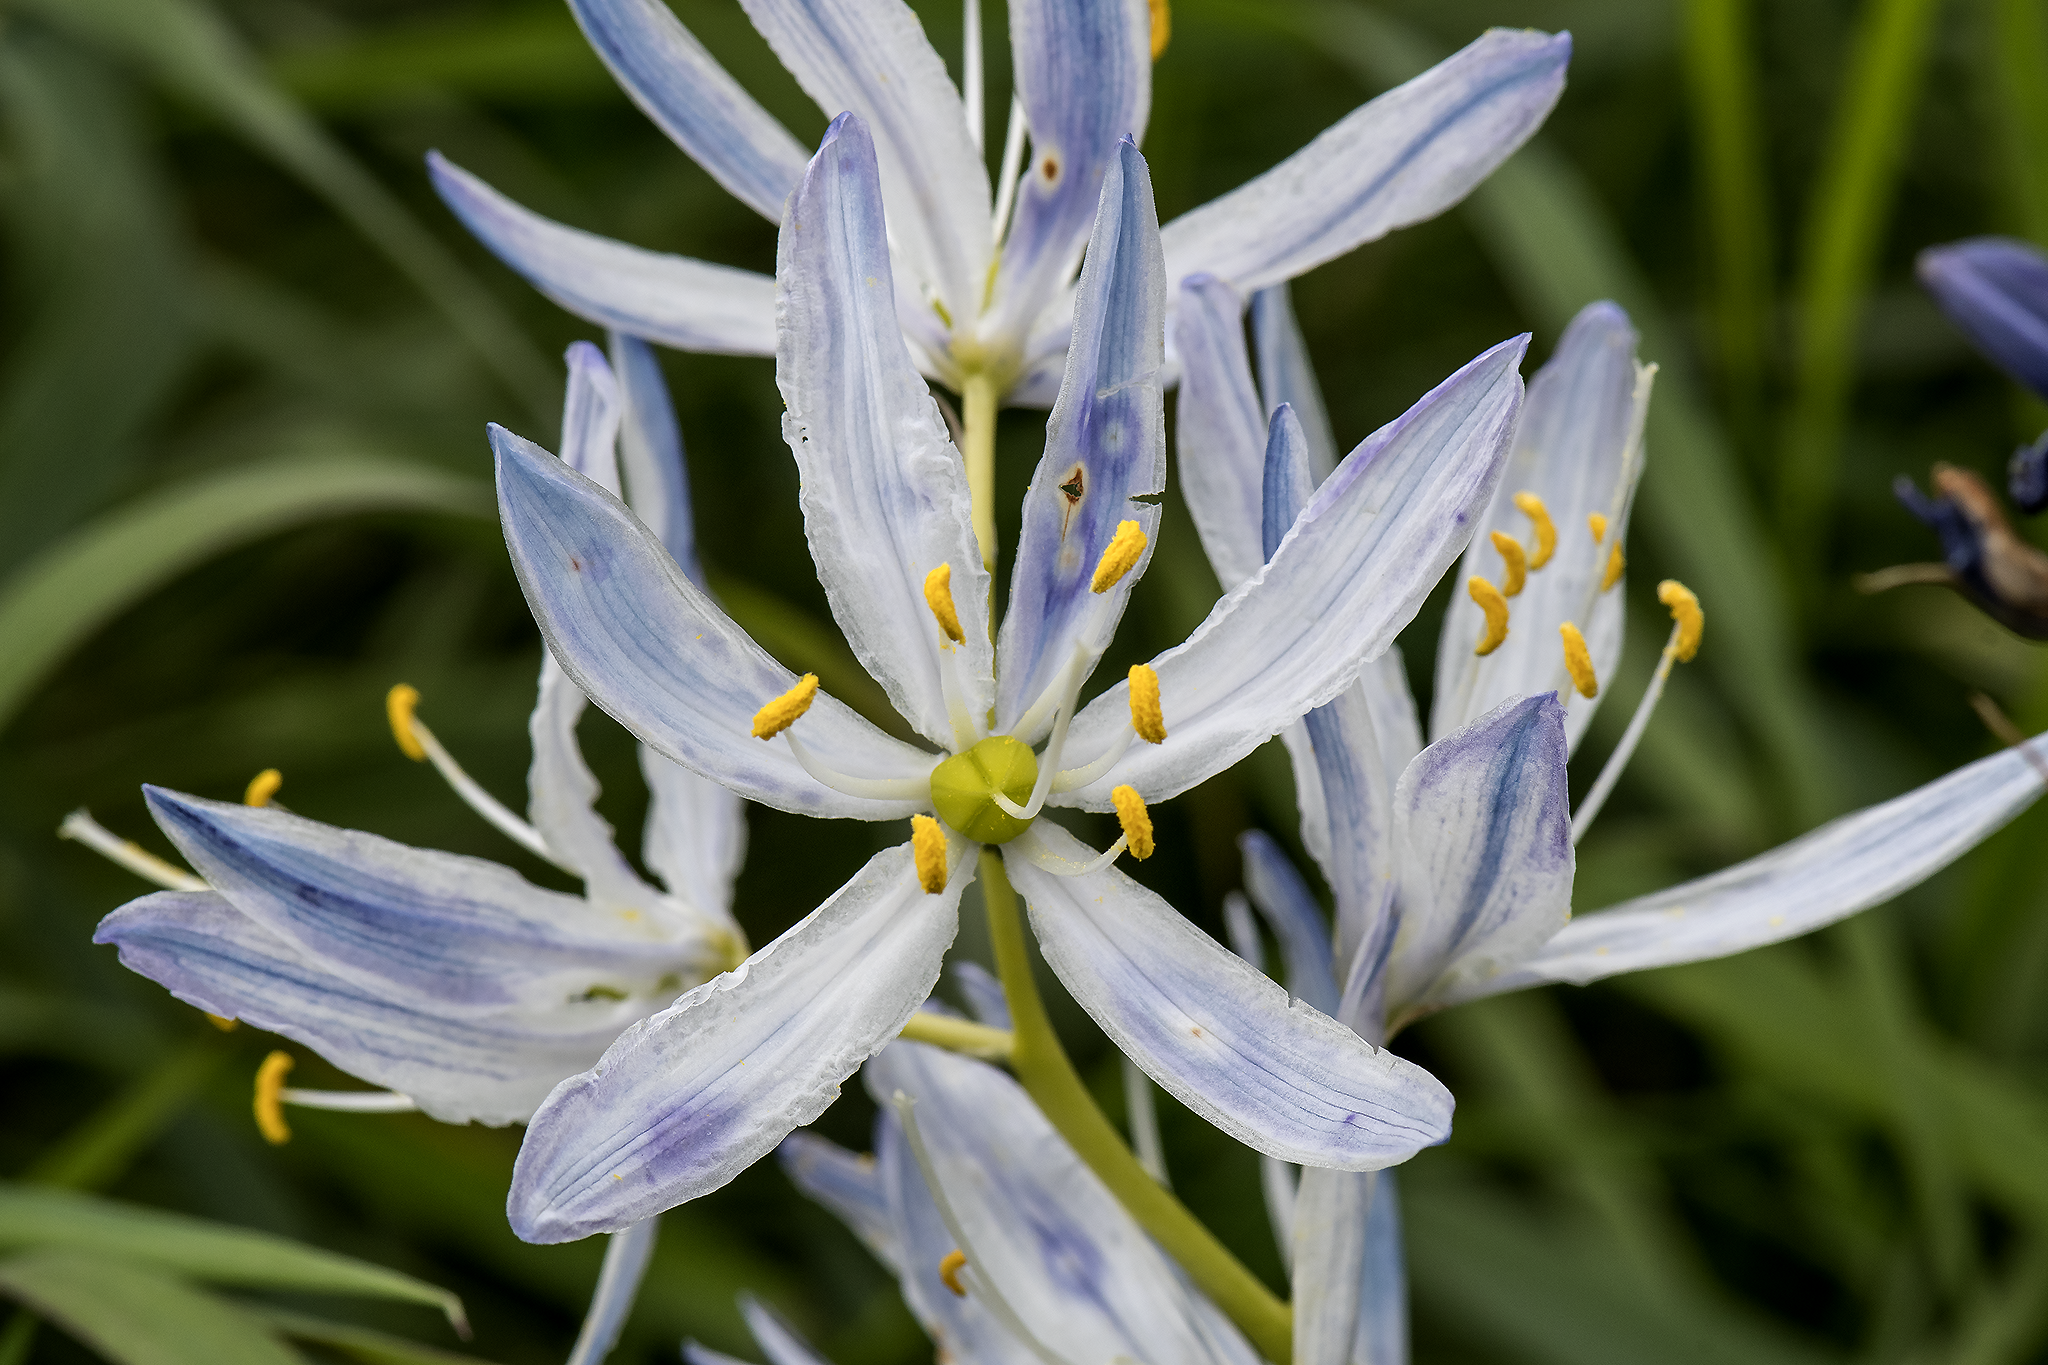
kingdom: Plantae
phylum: Tracheophyta
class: Liliopsida
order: Asparagales
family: Asparagaceae
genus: Camassia
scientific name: Camassia quamash
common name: Common camas
